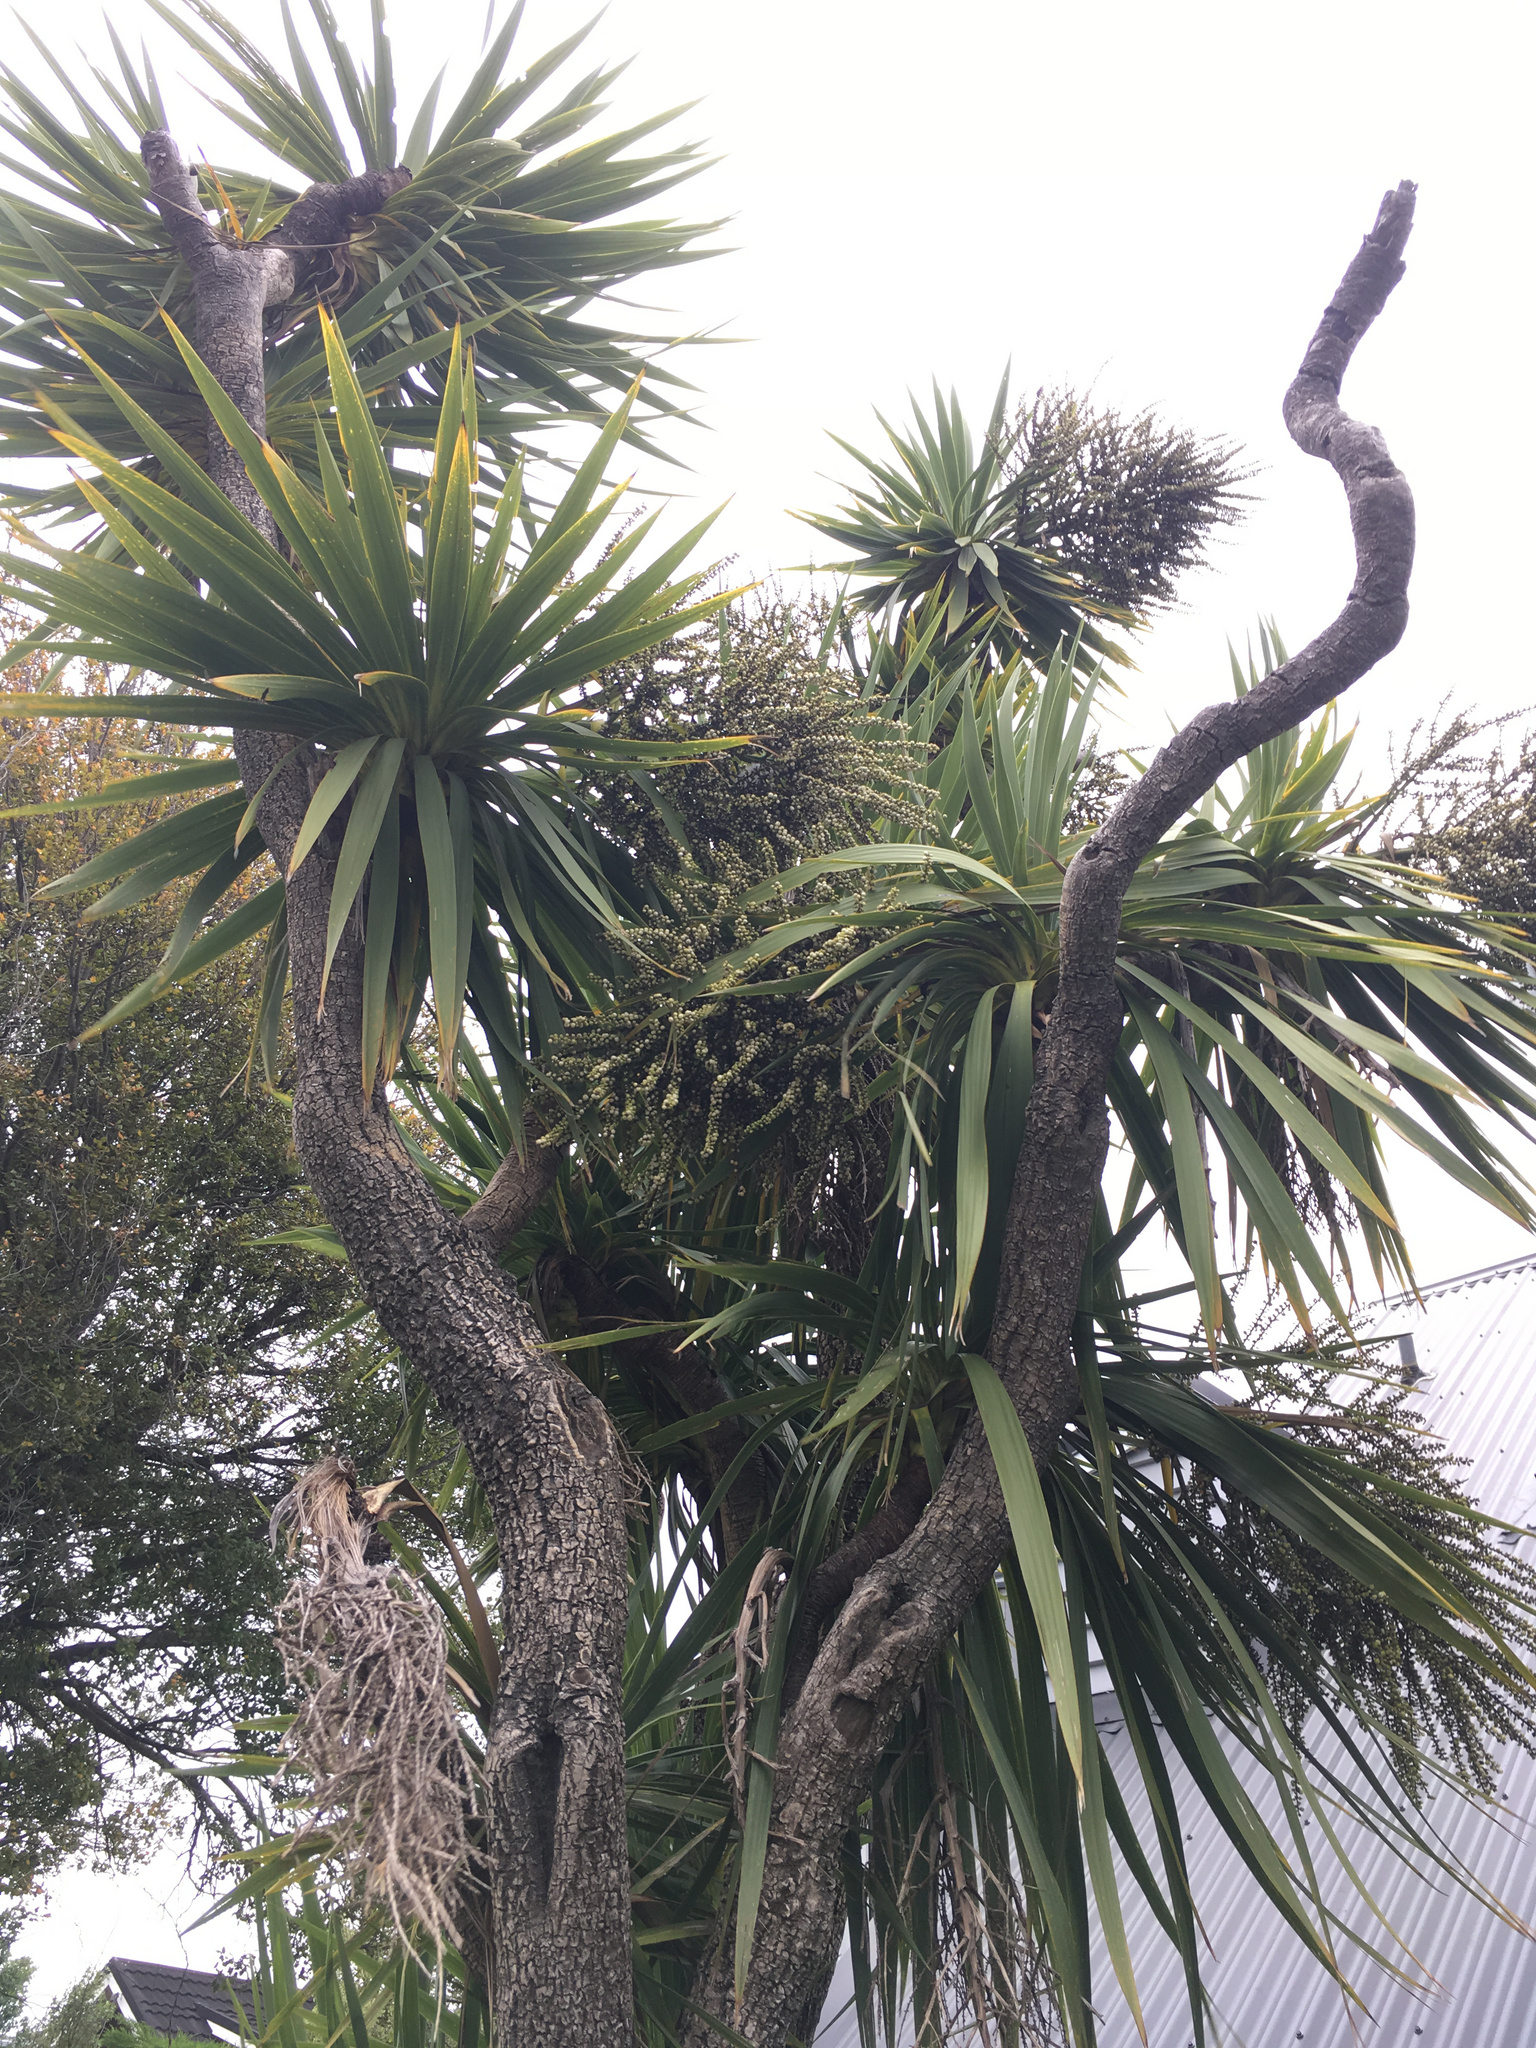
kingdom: Plantae
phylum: Tracheophyta
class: Liliopsida
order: Asparagales
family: Asparagaceae
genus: Cordyline
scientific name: Cordyline australis
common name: Cabbage-palm
